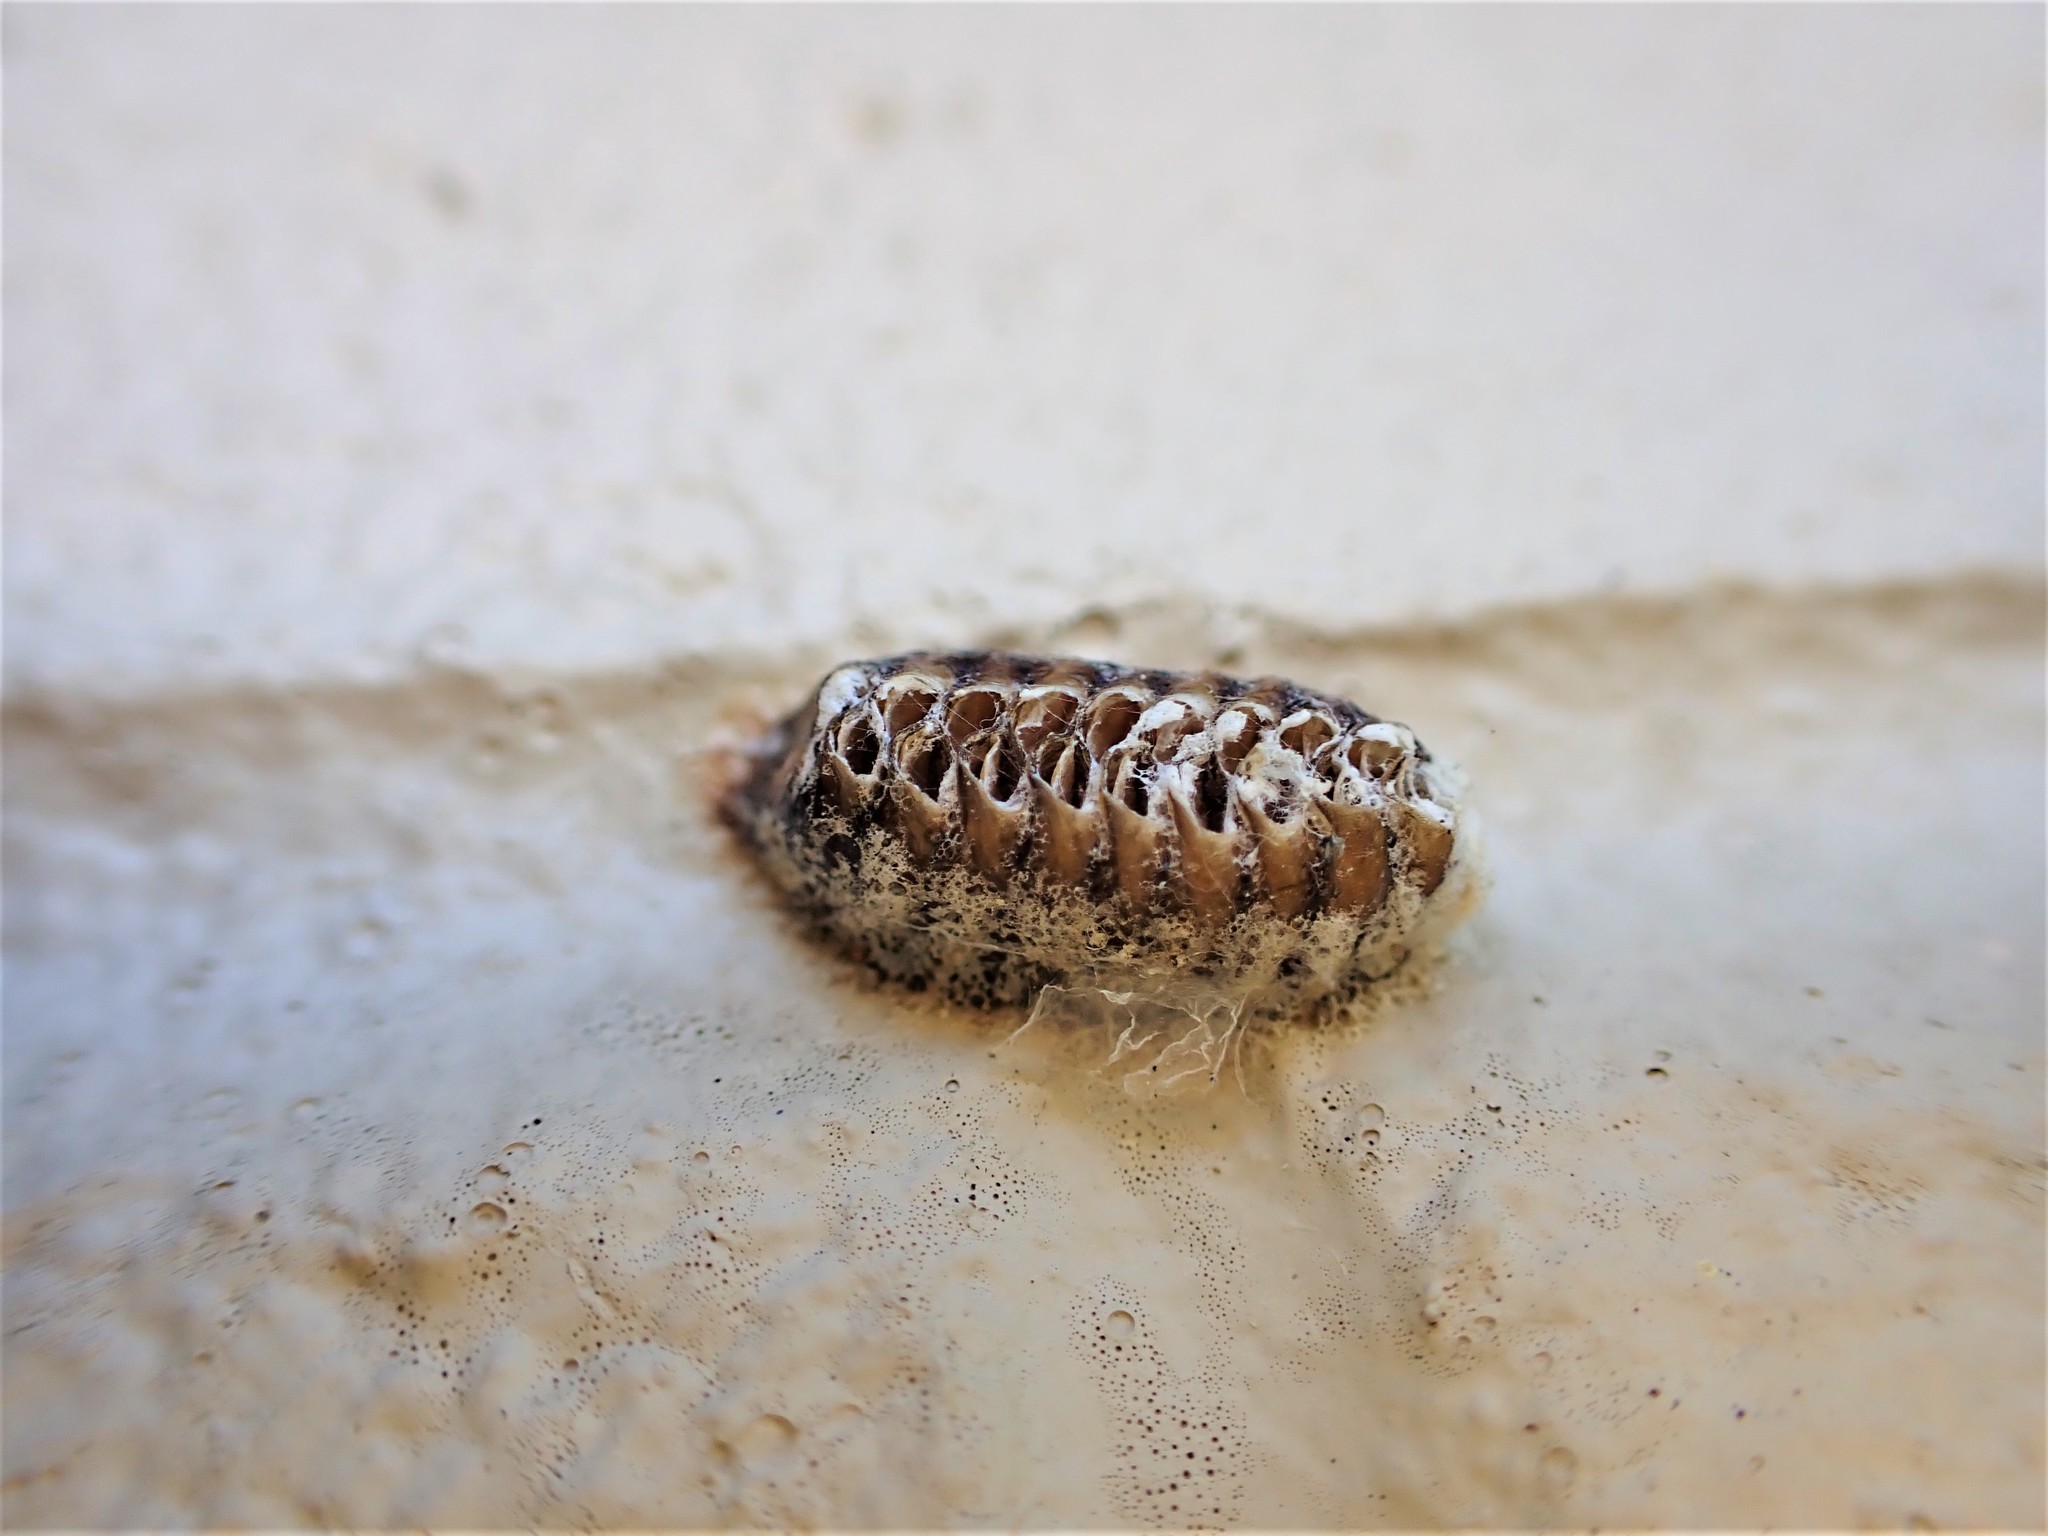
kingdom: Animalia
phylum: Arthropoda
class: Insecta
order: Mantodea
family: Mantidae
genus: Orthodera
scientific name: Orthodera novaezealandiae
